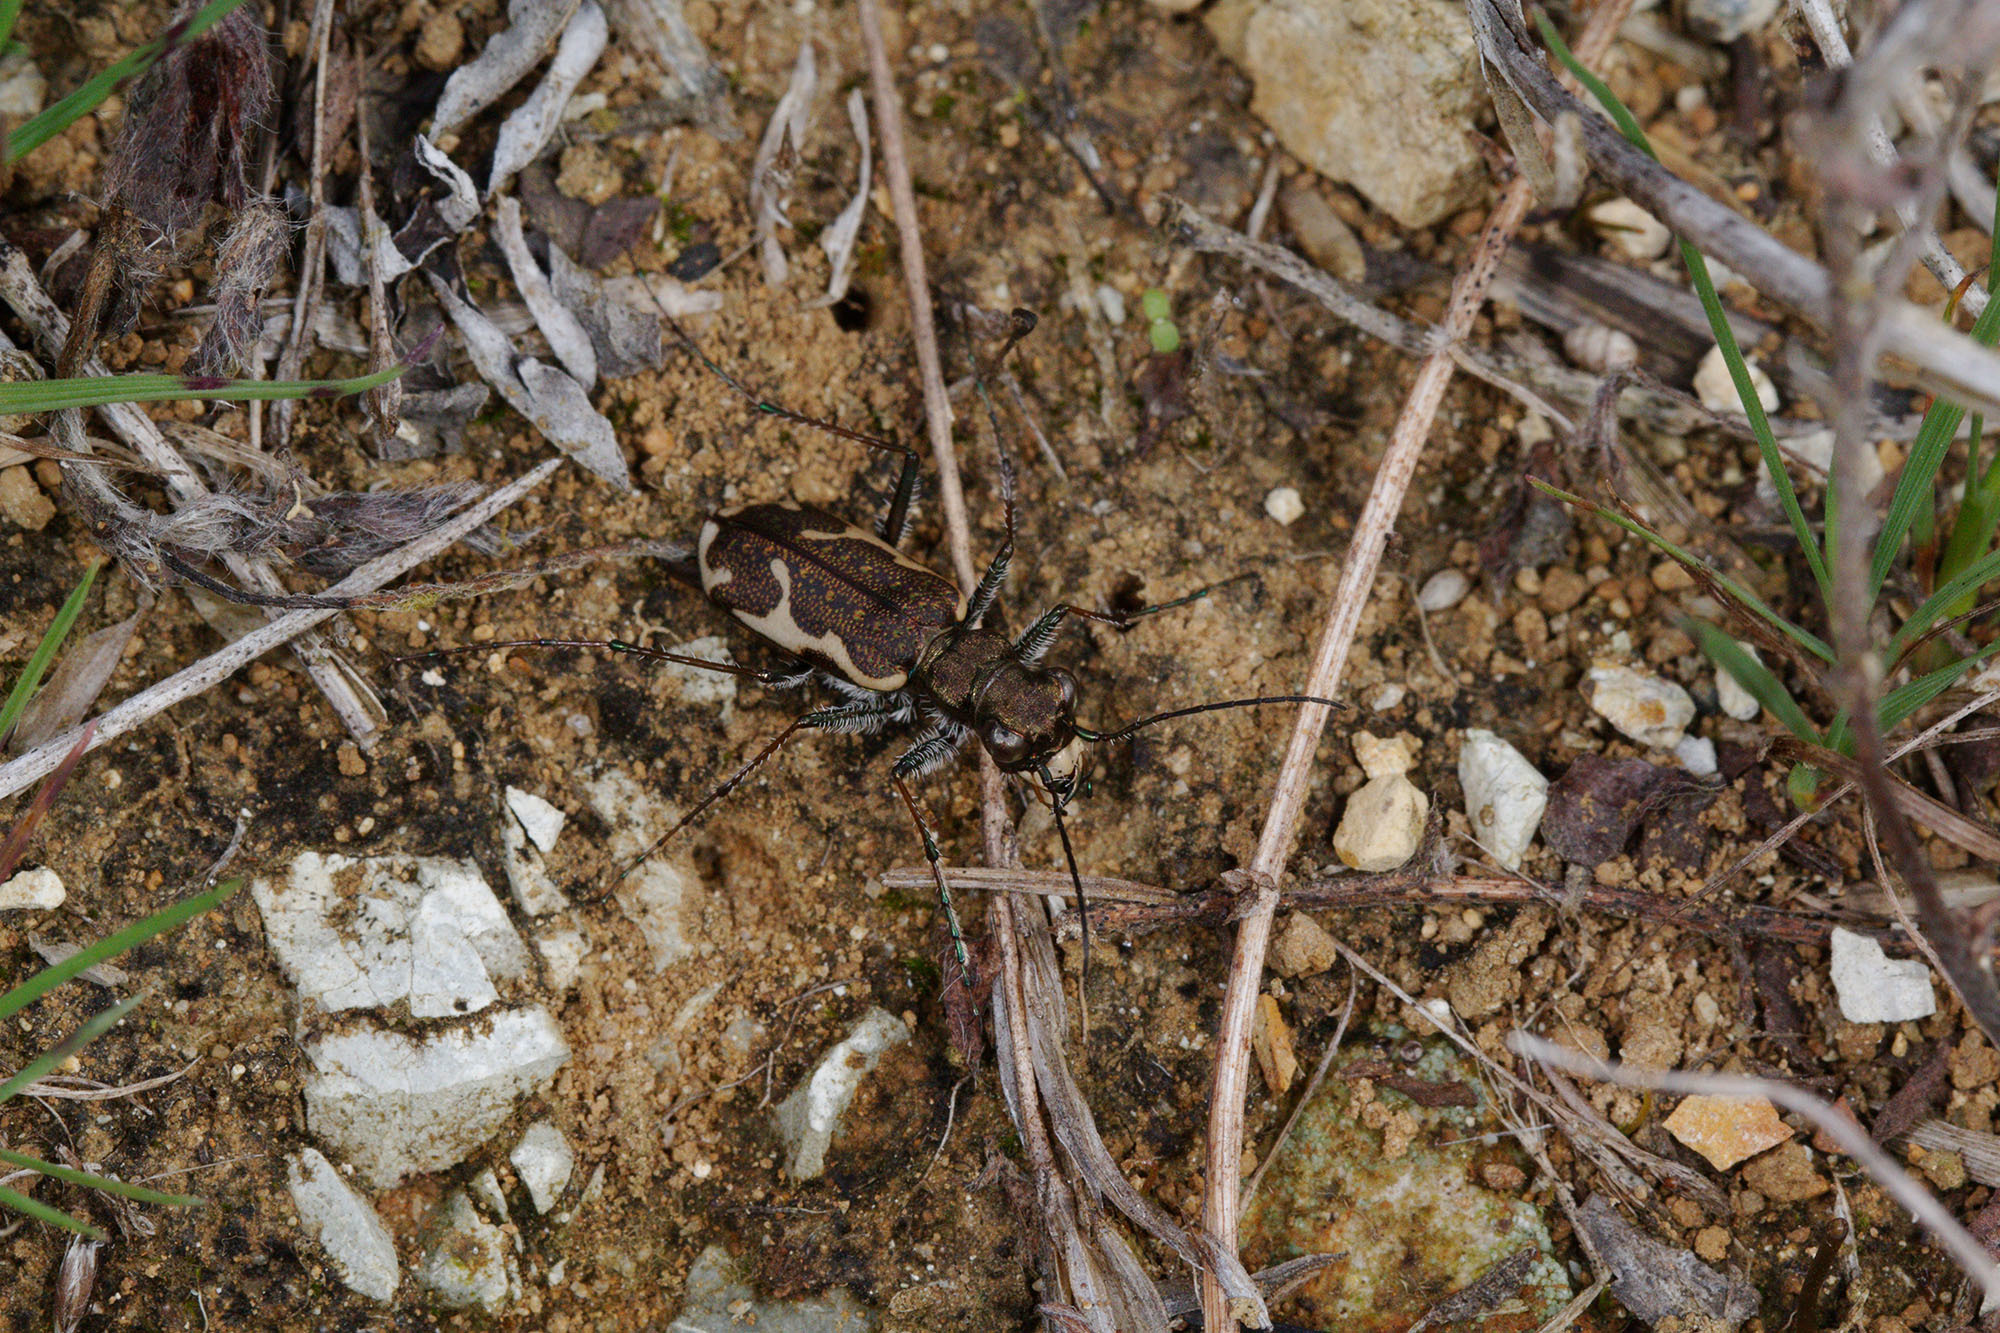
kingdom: Animalia
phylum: Arthropoda
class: Insecta
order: Coleoptera
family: Carabidae
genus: Neocicindela
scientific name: Neocicindela tuberculata
